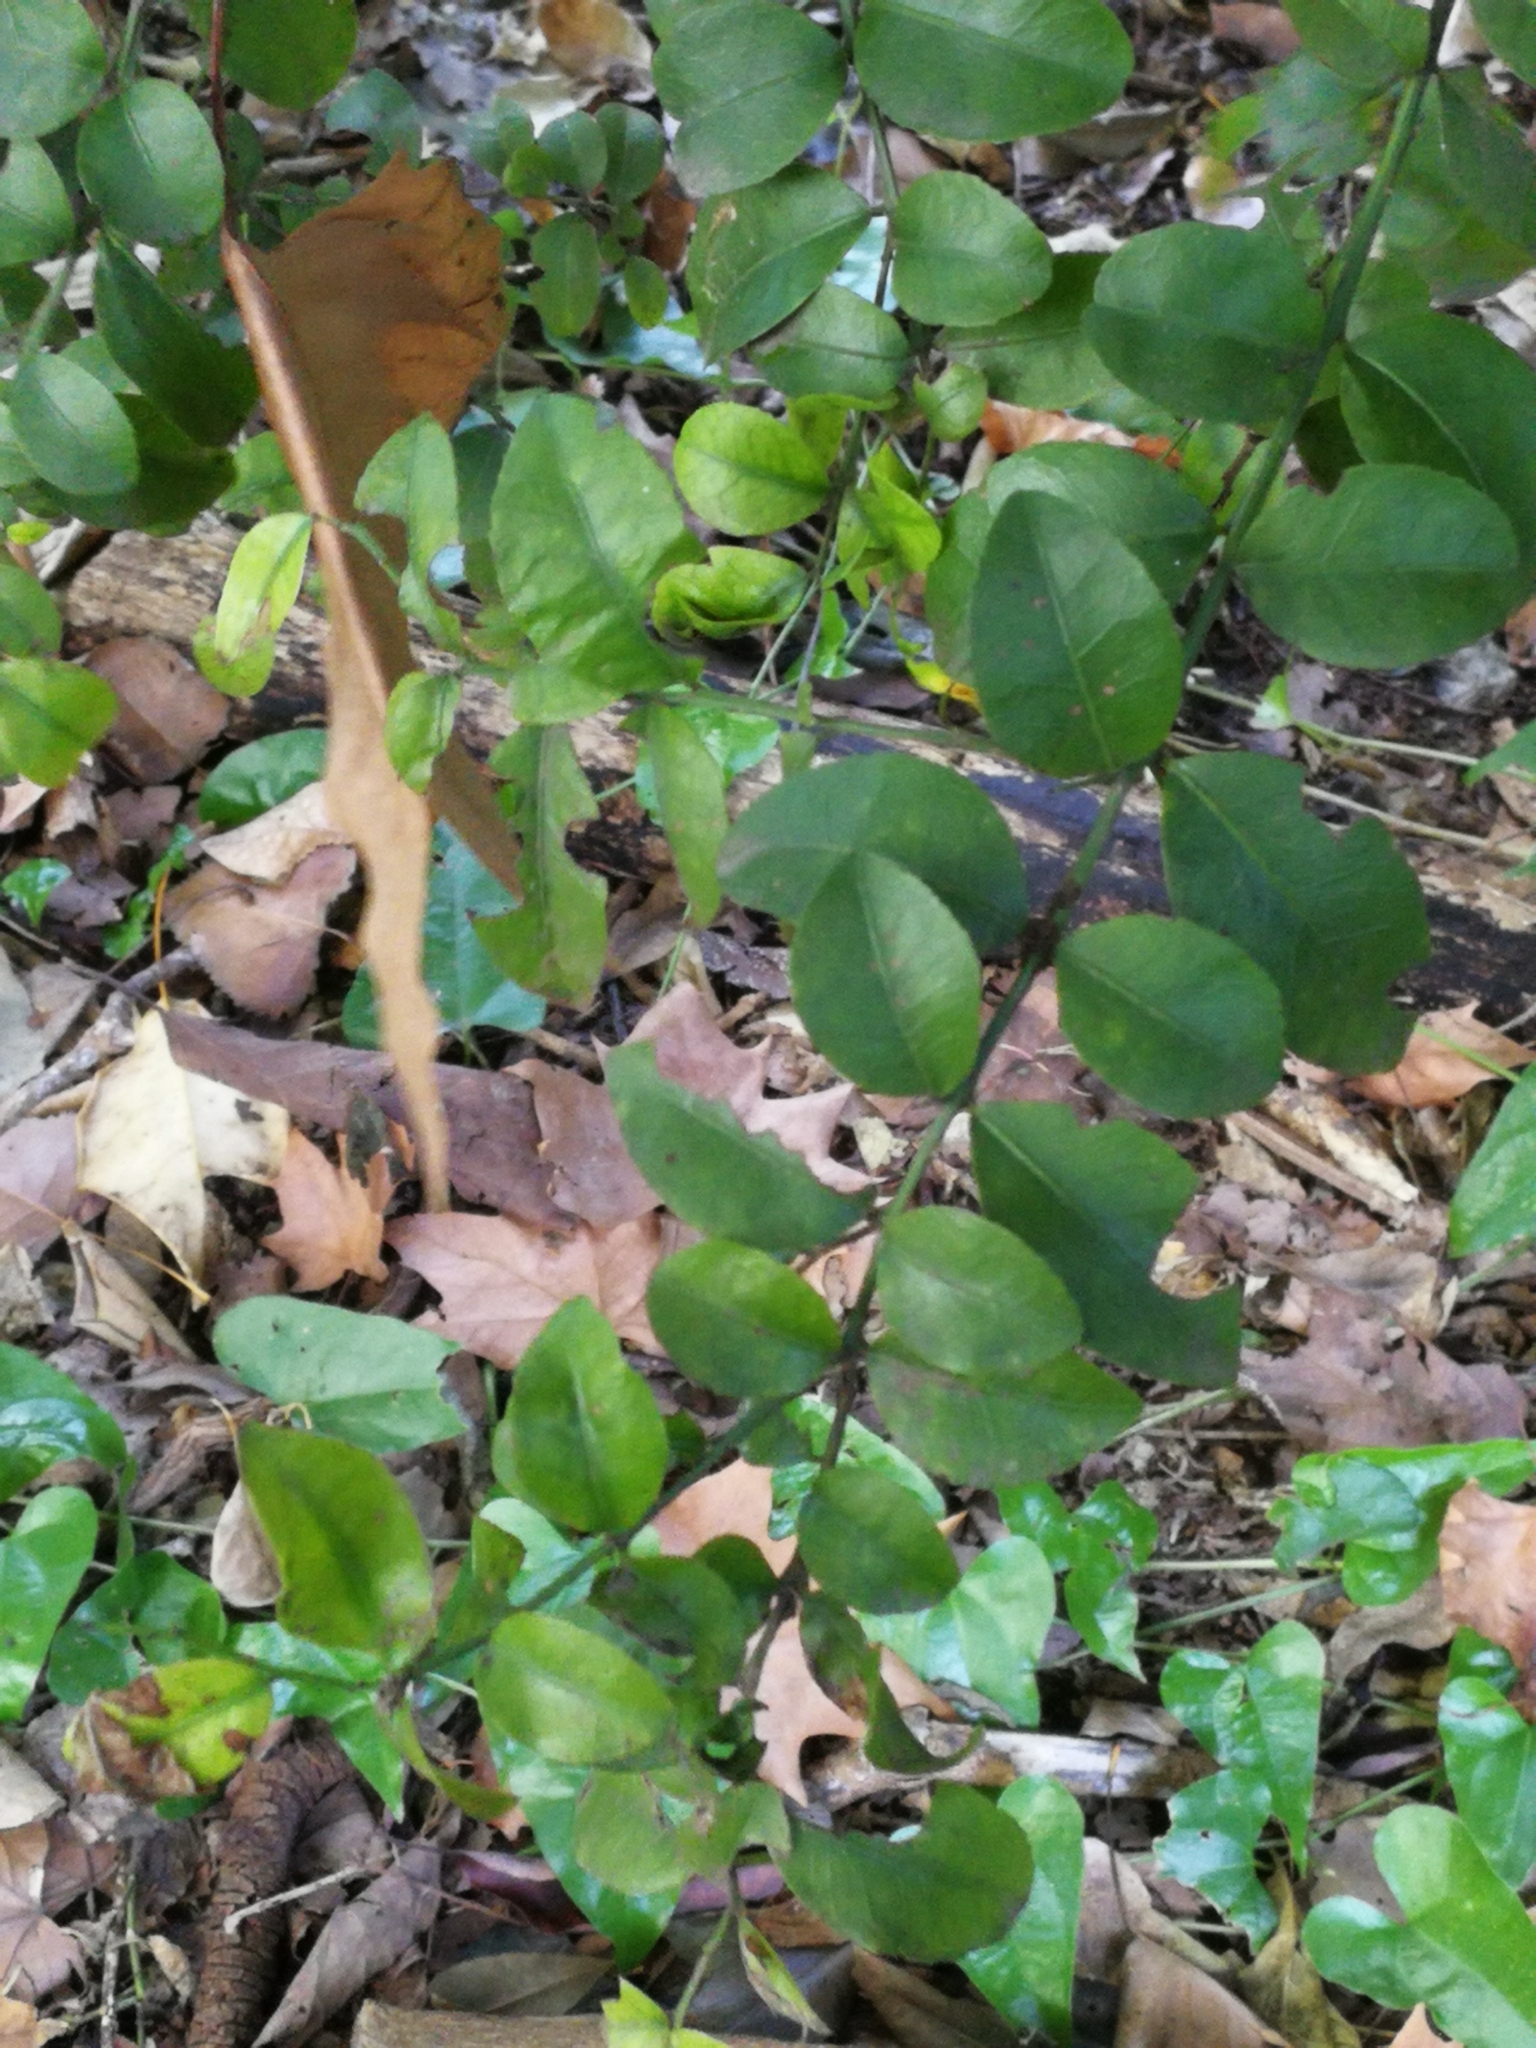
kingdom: Plantae
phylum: Tracheophyta
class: Magnoliopsida
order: Rosales
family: Rhamnaceae
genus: Scutia
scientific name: Scutia buxifolia
